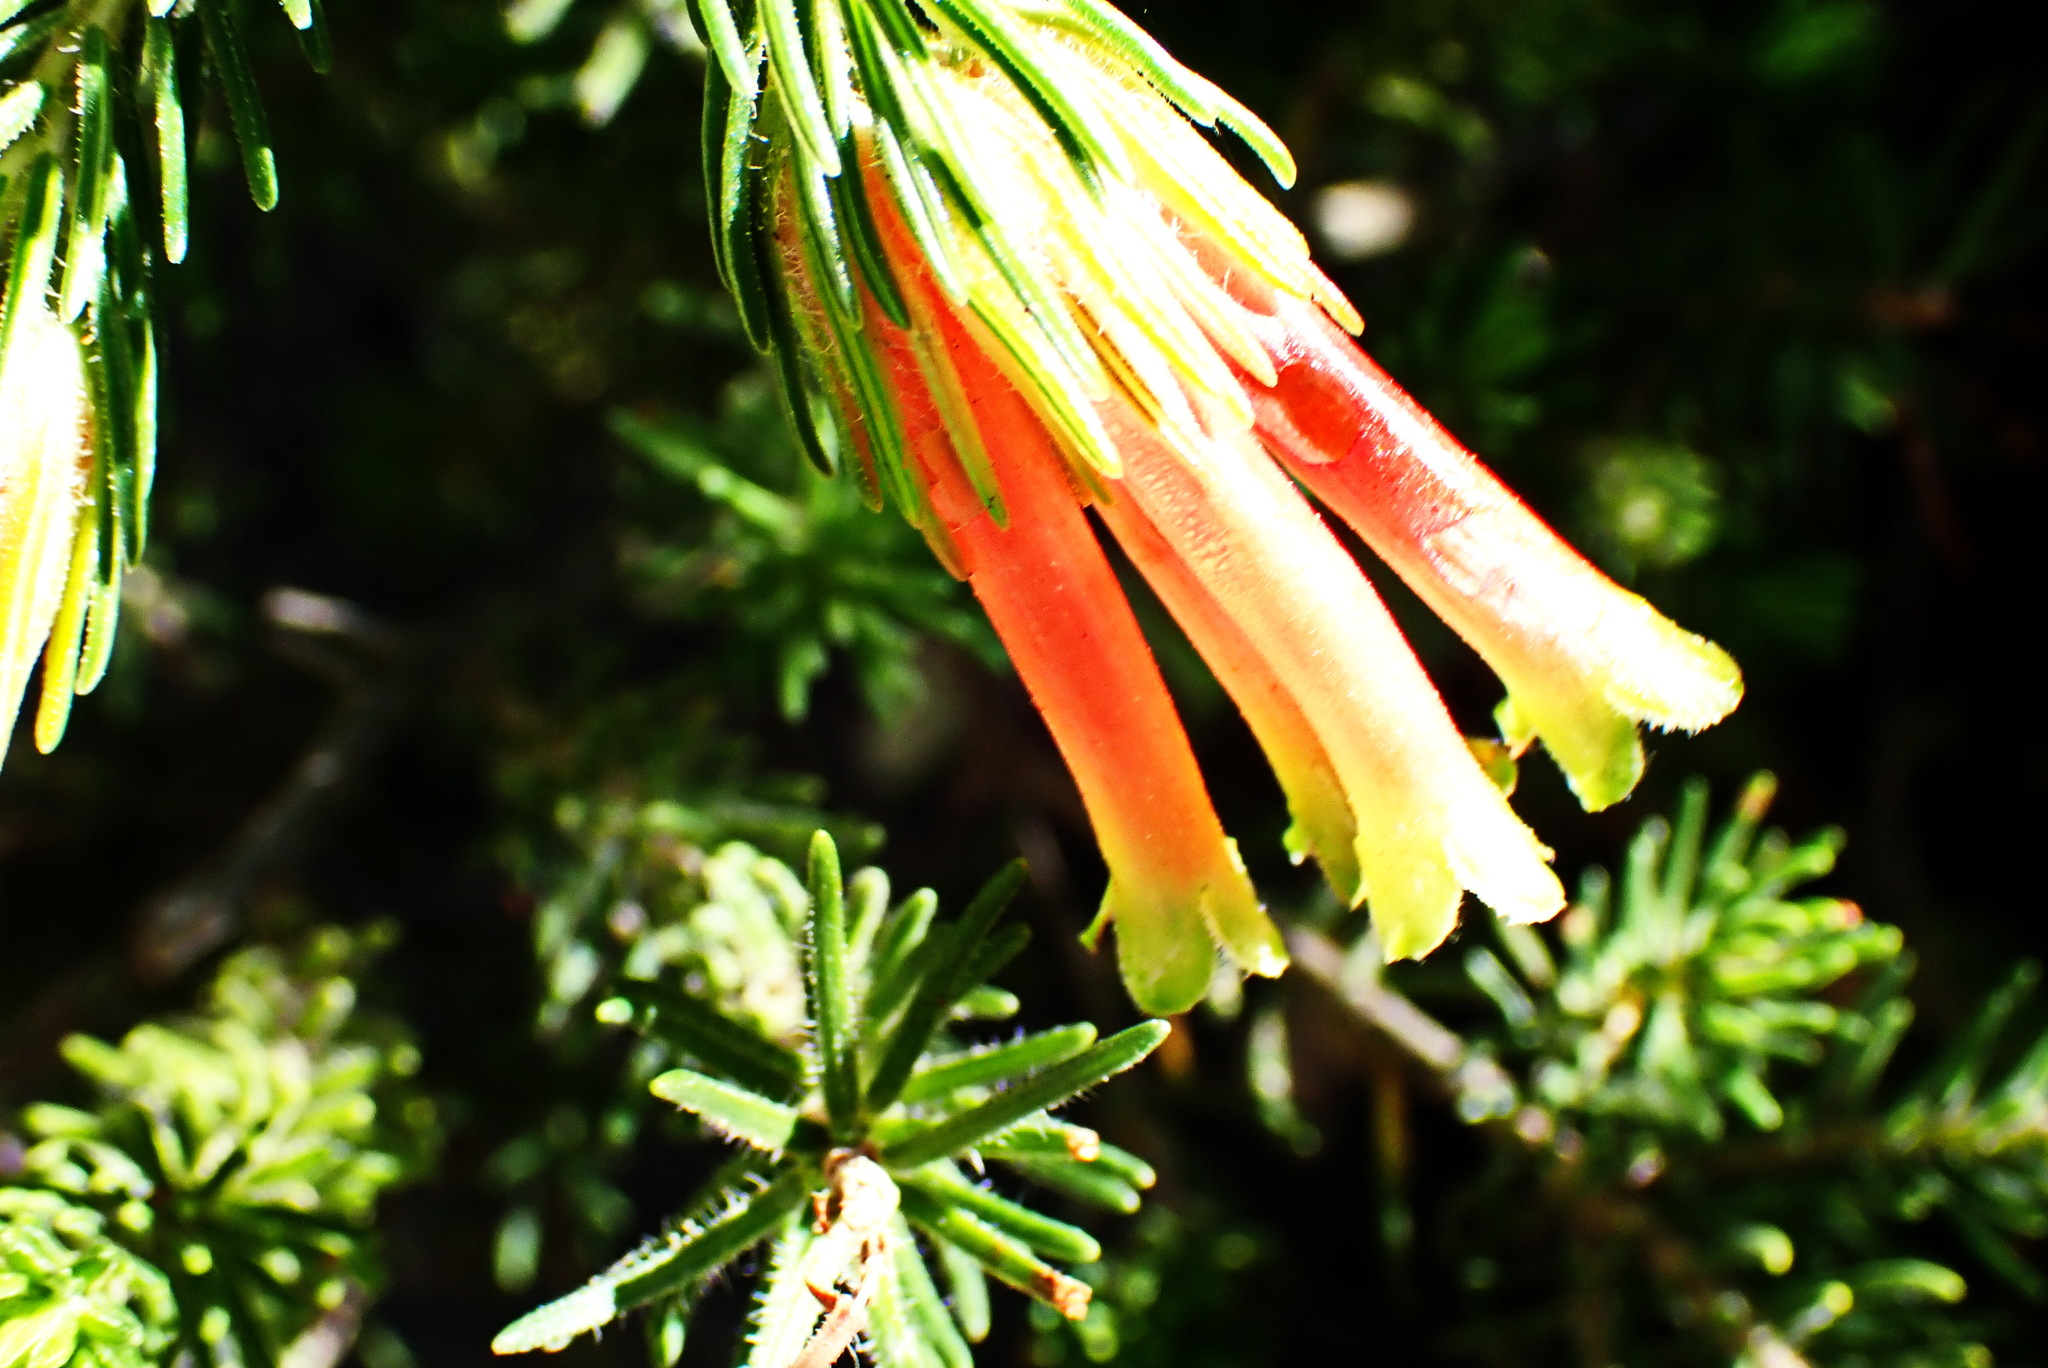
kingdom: Plantae
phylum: Tracheophyta
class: Magnoliopsida
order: Ericales
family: Ericaceae
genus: Erica
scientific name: Erica unicolor
